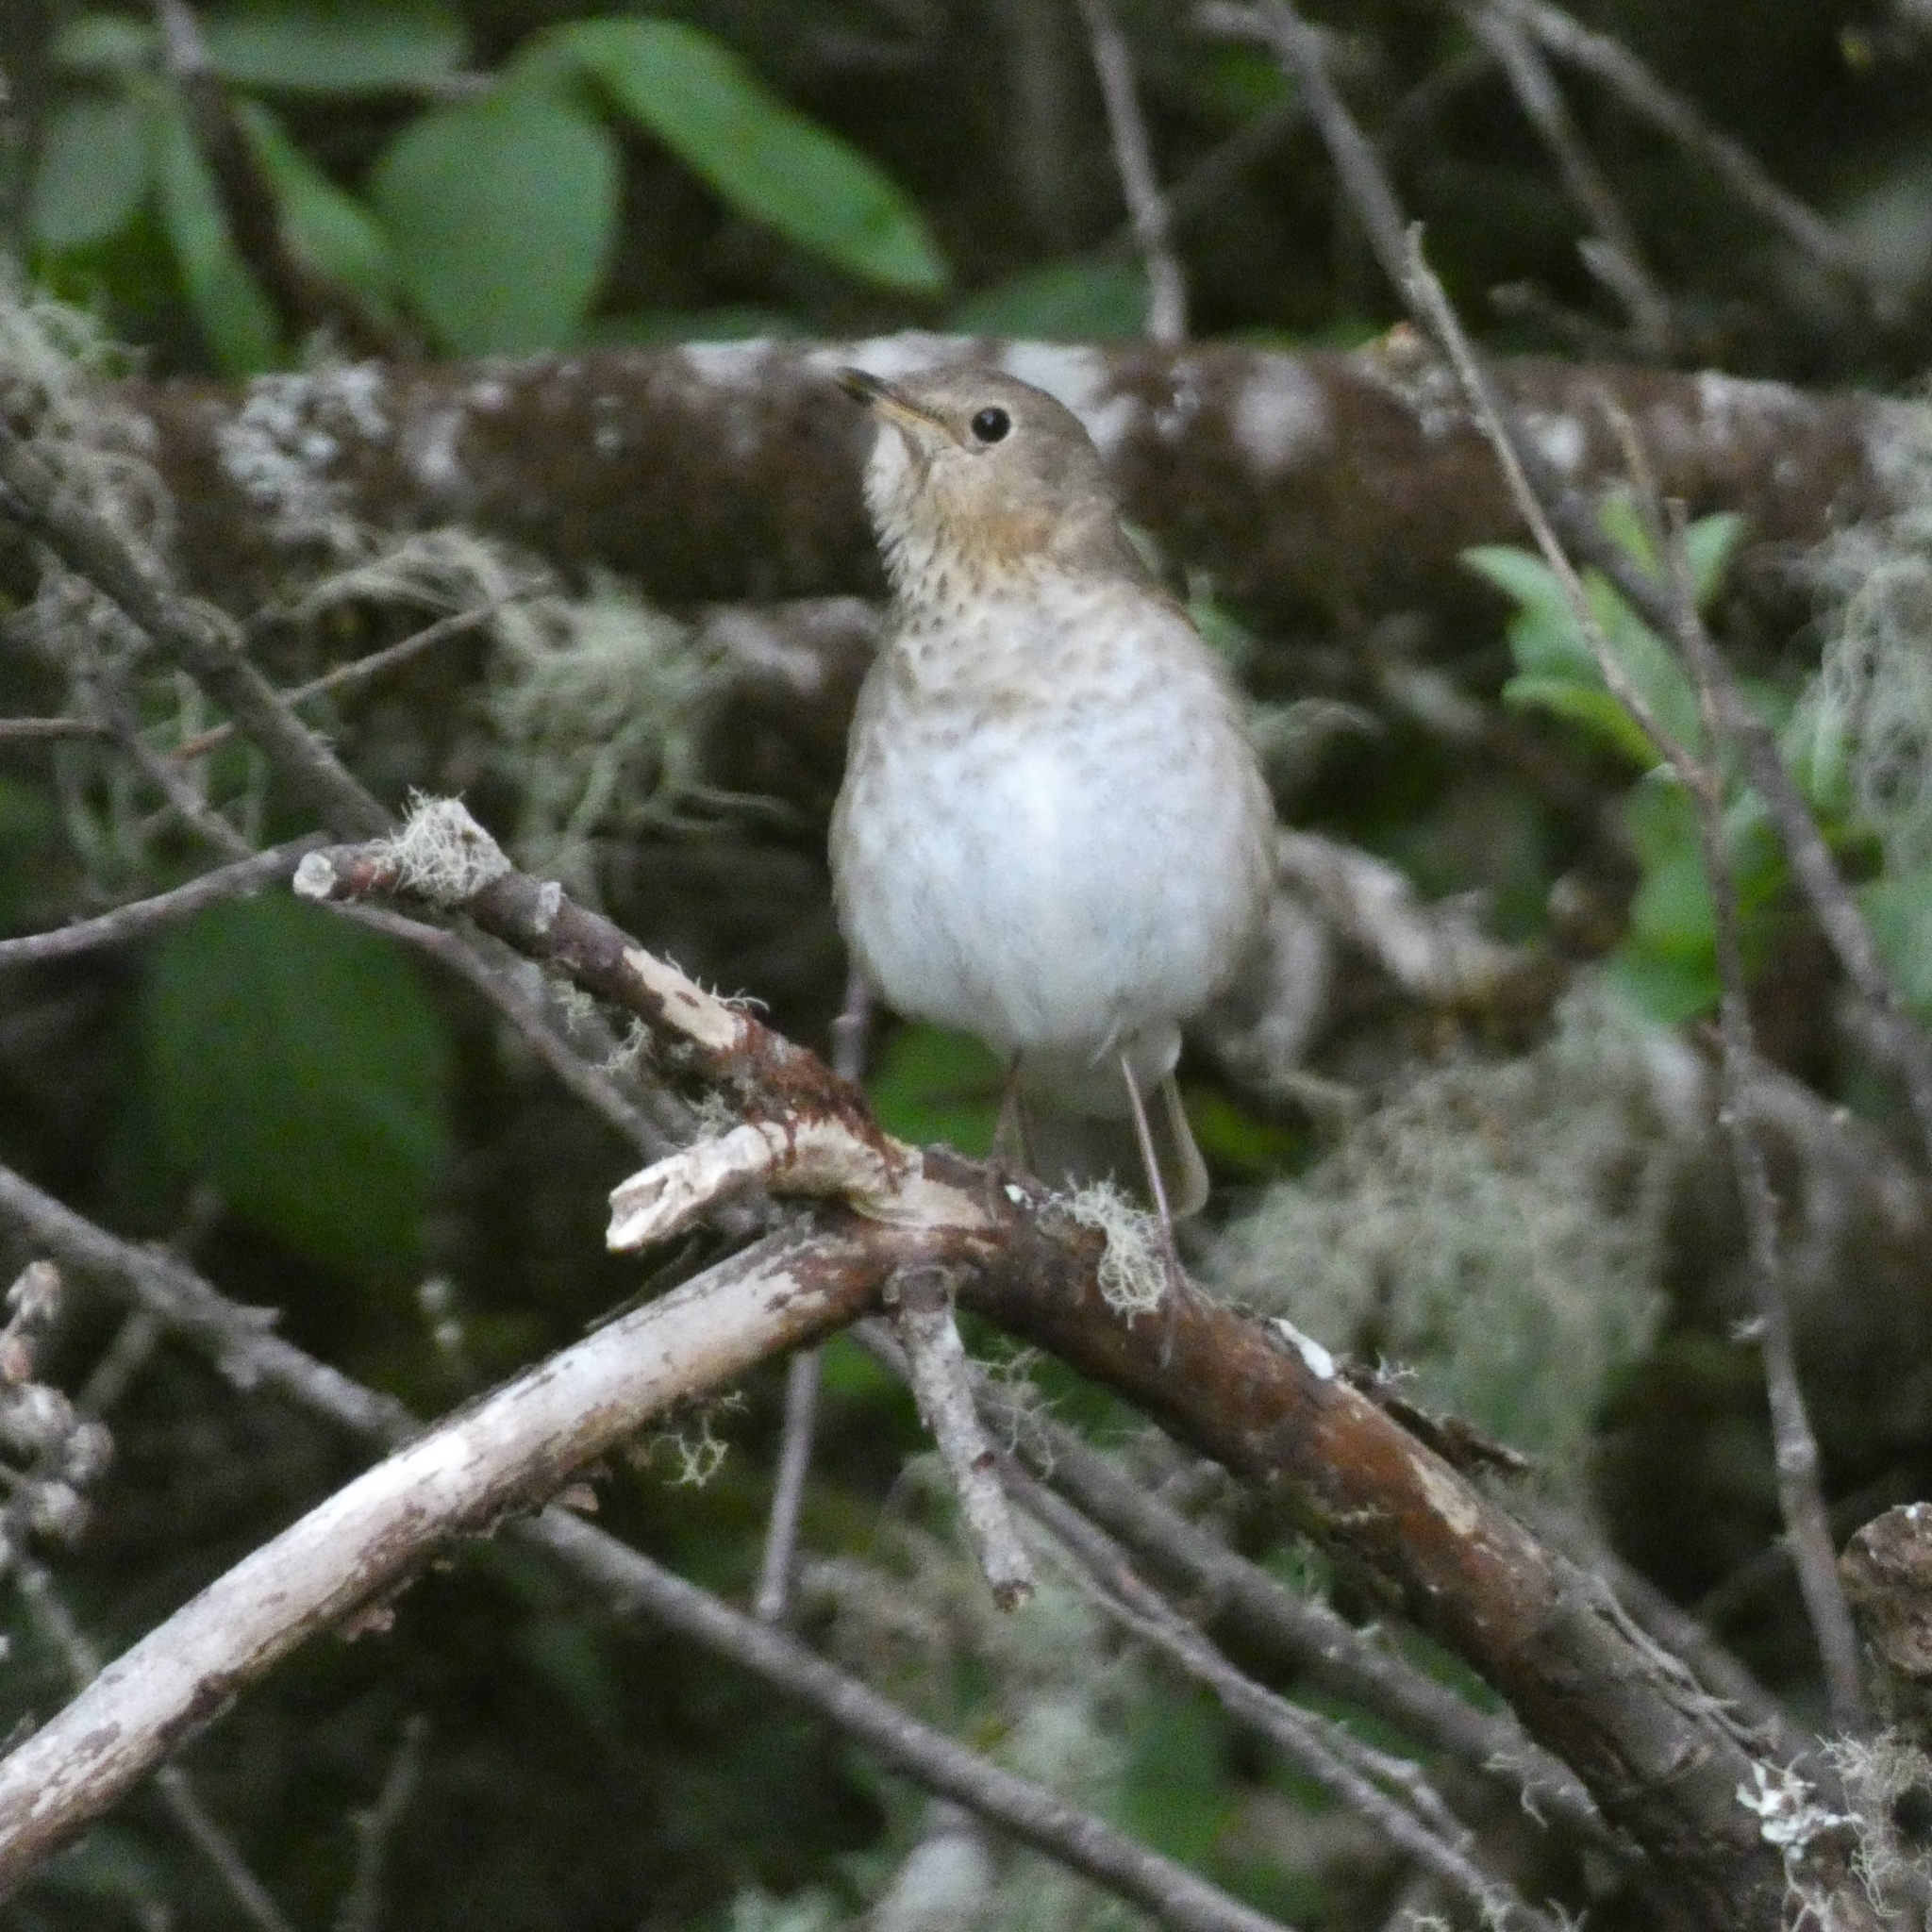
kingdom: Animalia
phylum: Chordata
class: Aves
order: Passeriformes
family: Turdidae
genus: Catharus
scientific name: Catharus ustulatus
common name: Swainson's thrush
